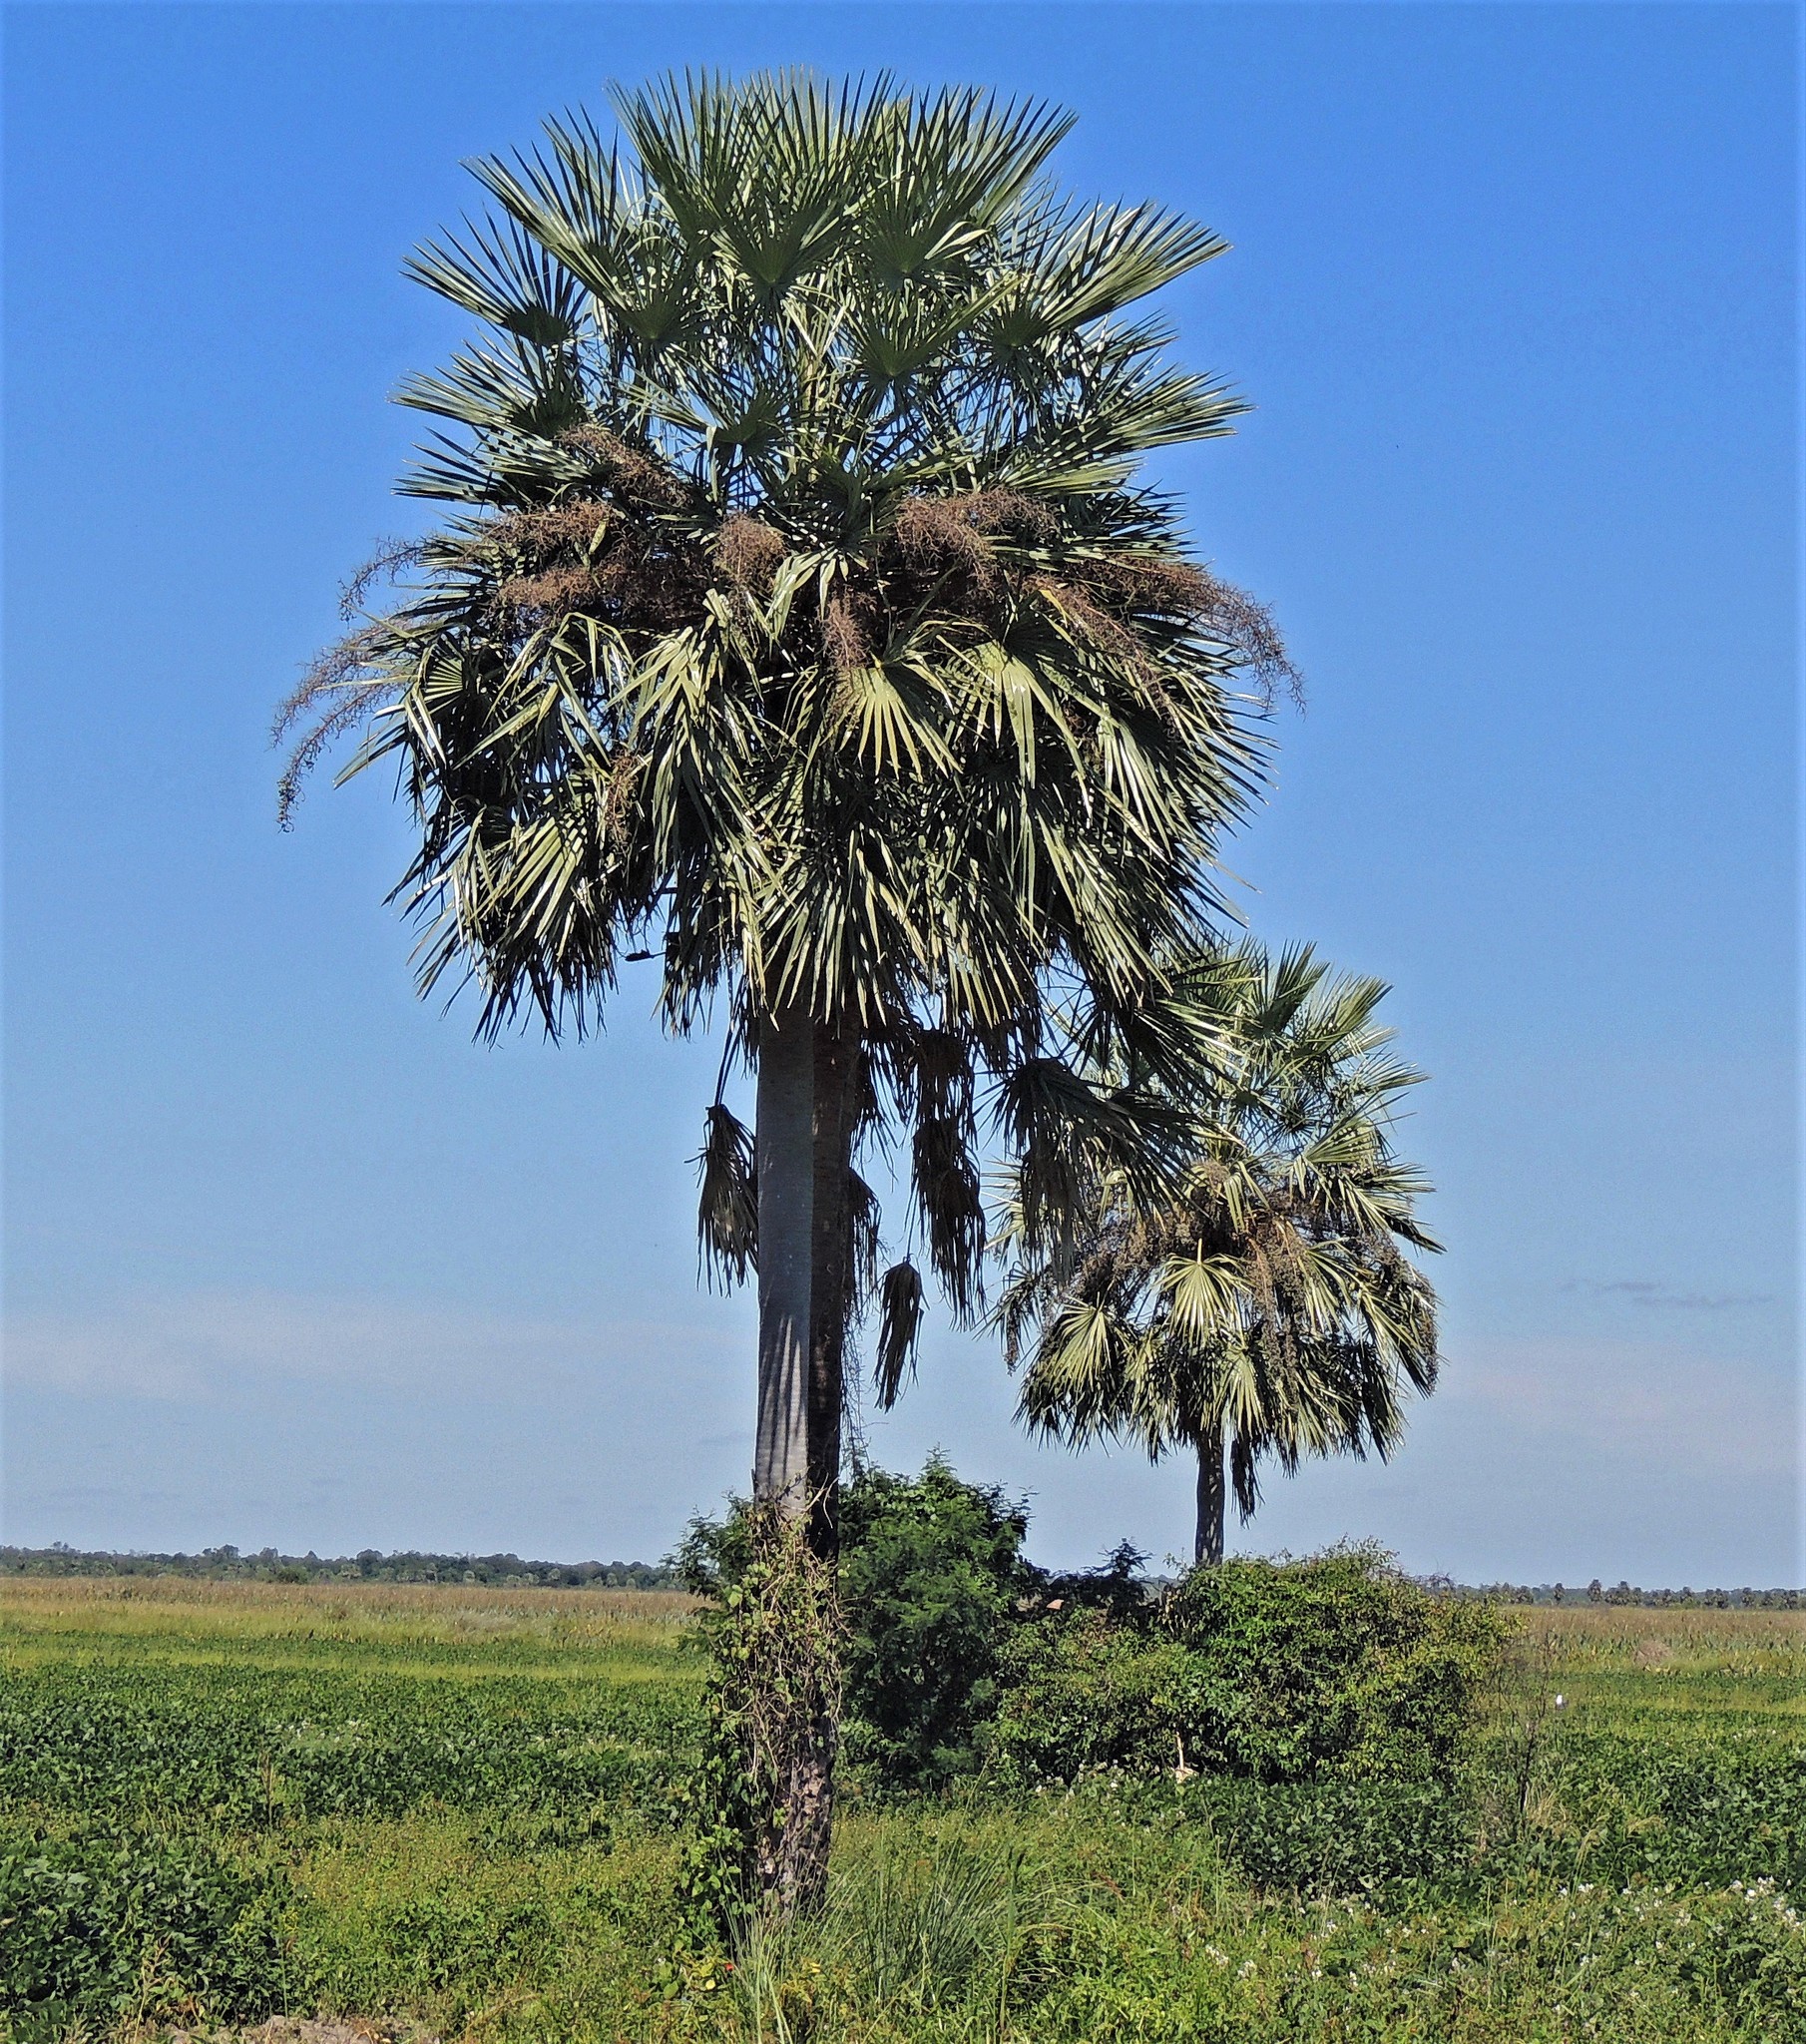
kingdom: Plantae
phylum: Tracheophyta
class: Liliopsida
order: Arecales
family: Arecaceae
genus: Copernicia
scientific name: Copernicia alba
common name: Caranday palm
